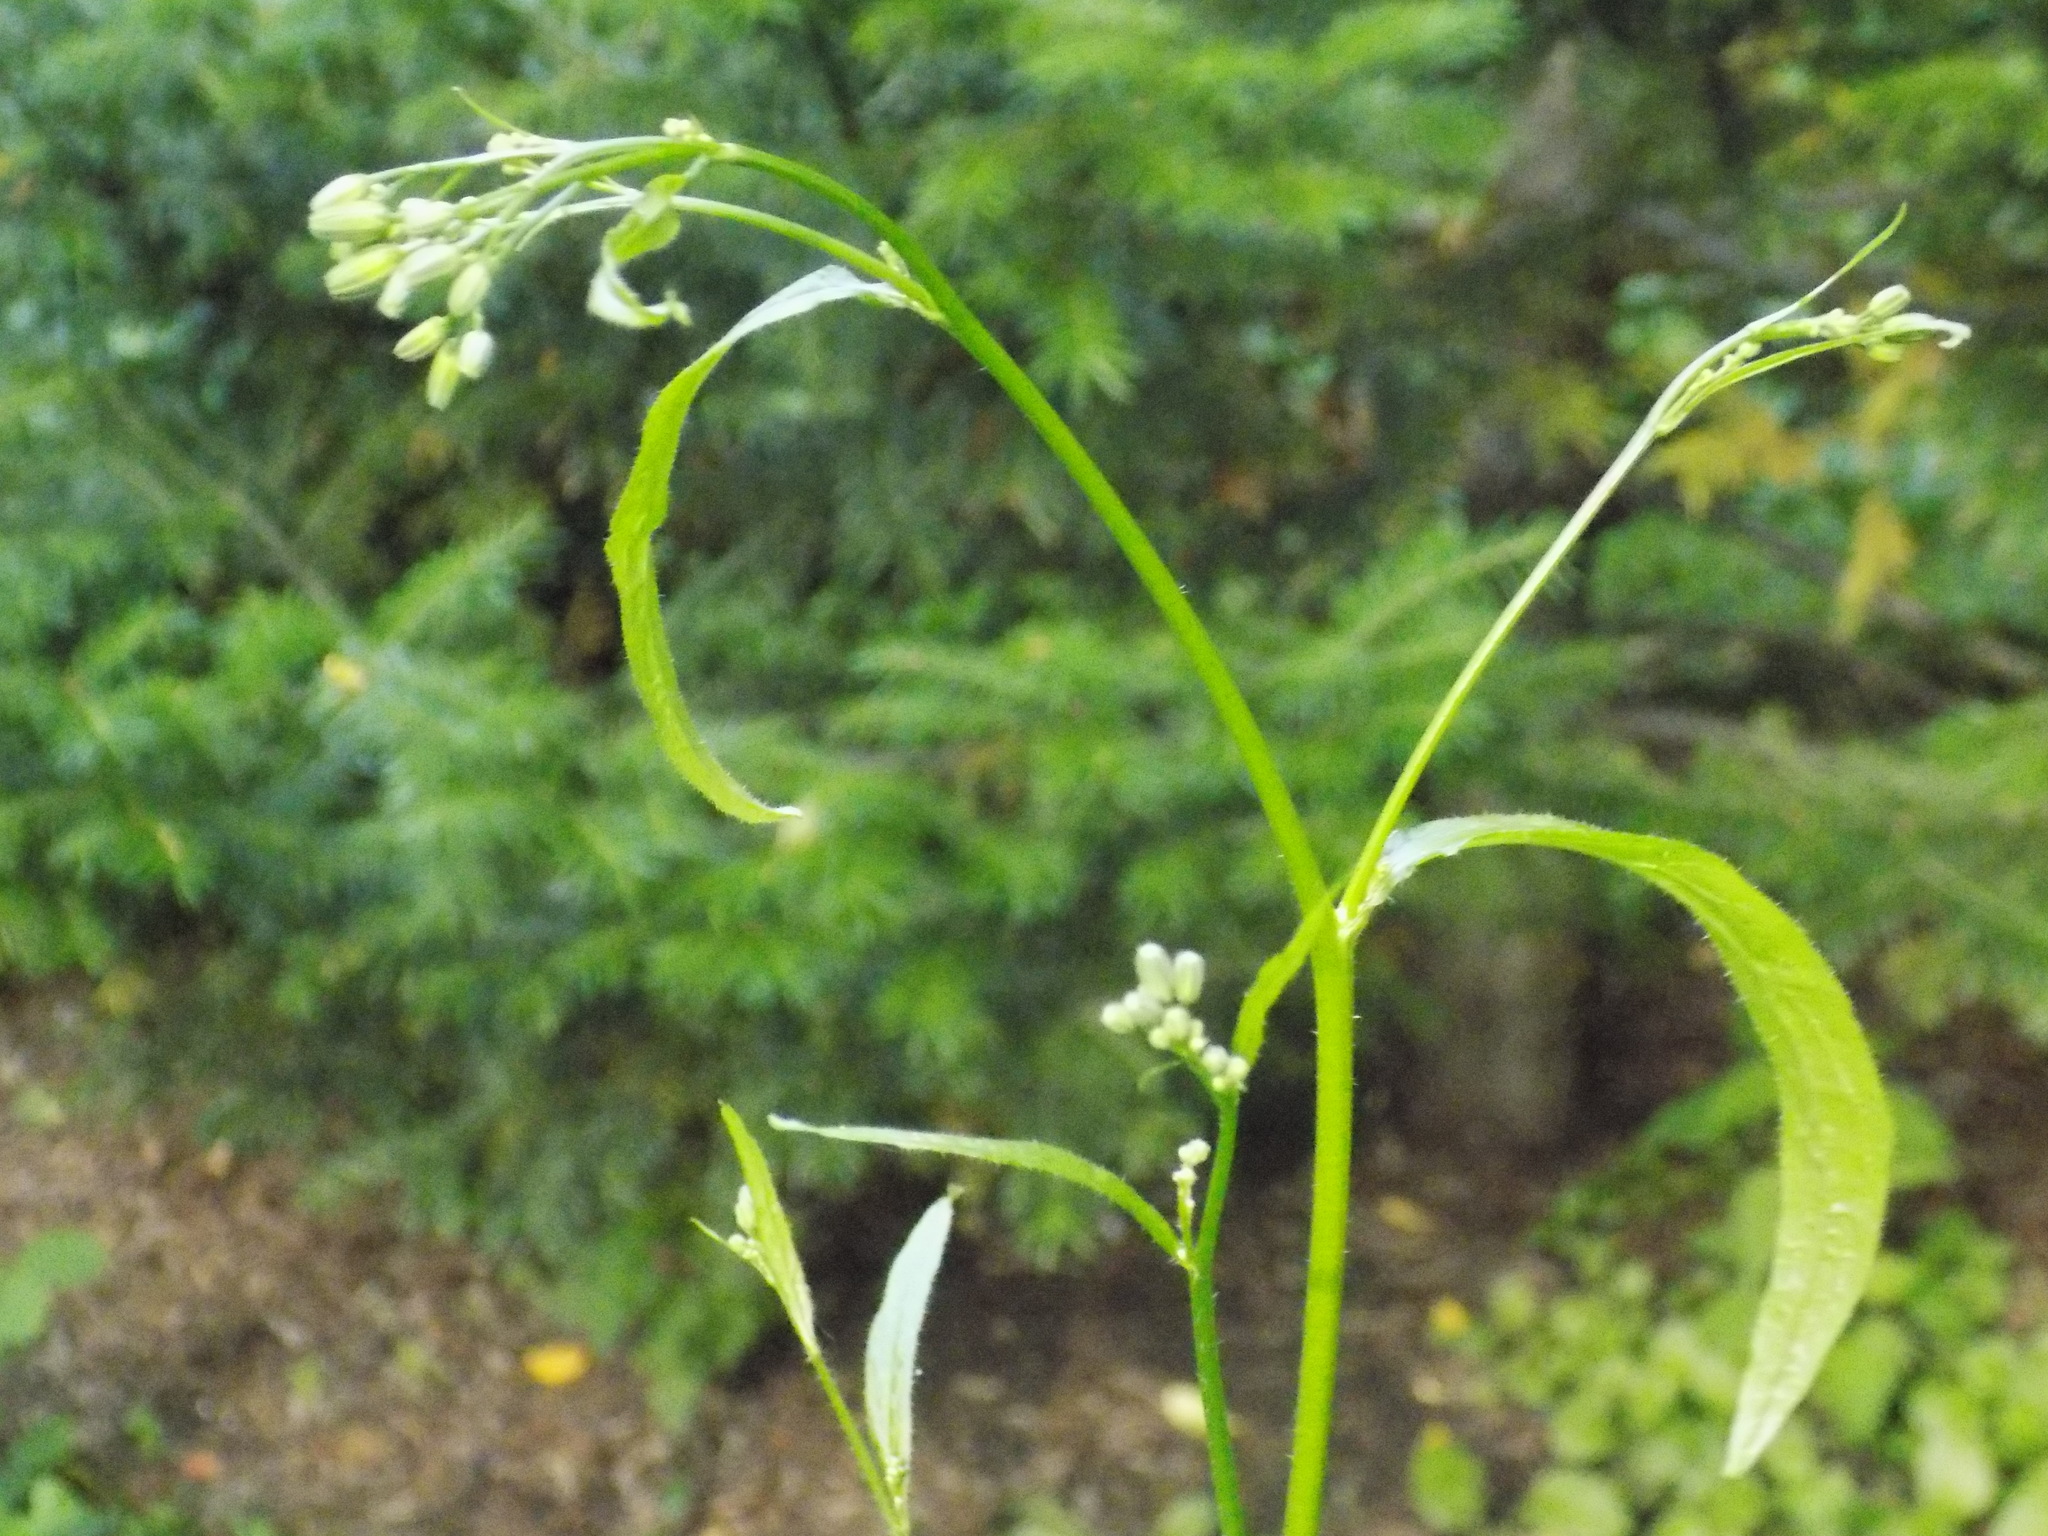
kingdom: Plantae
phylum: Tracheophyta
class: Magnoliopsida
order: Brassicales
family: Brassicaceae
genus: Catolobus
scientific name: Catolobus pendulus
